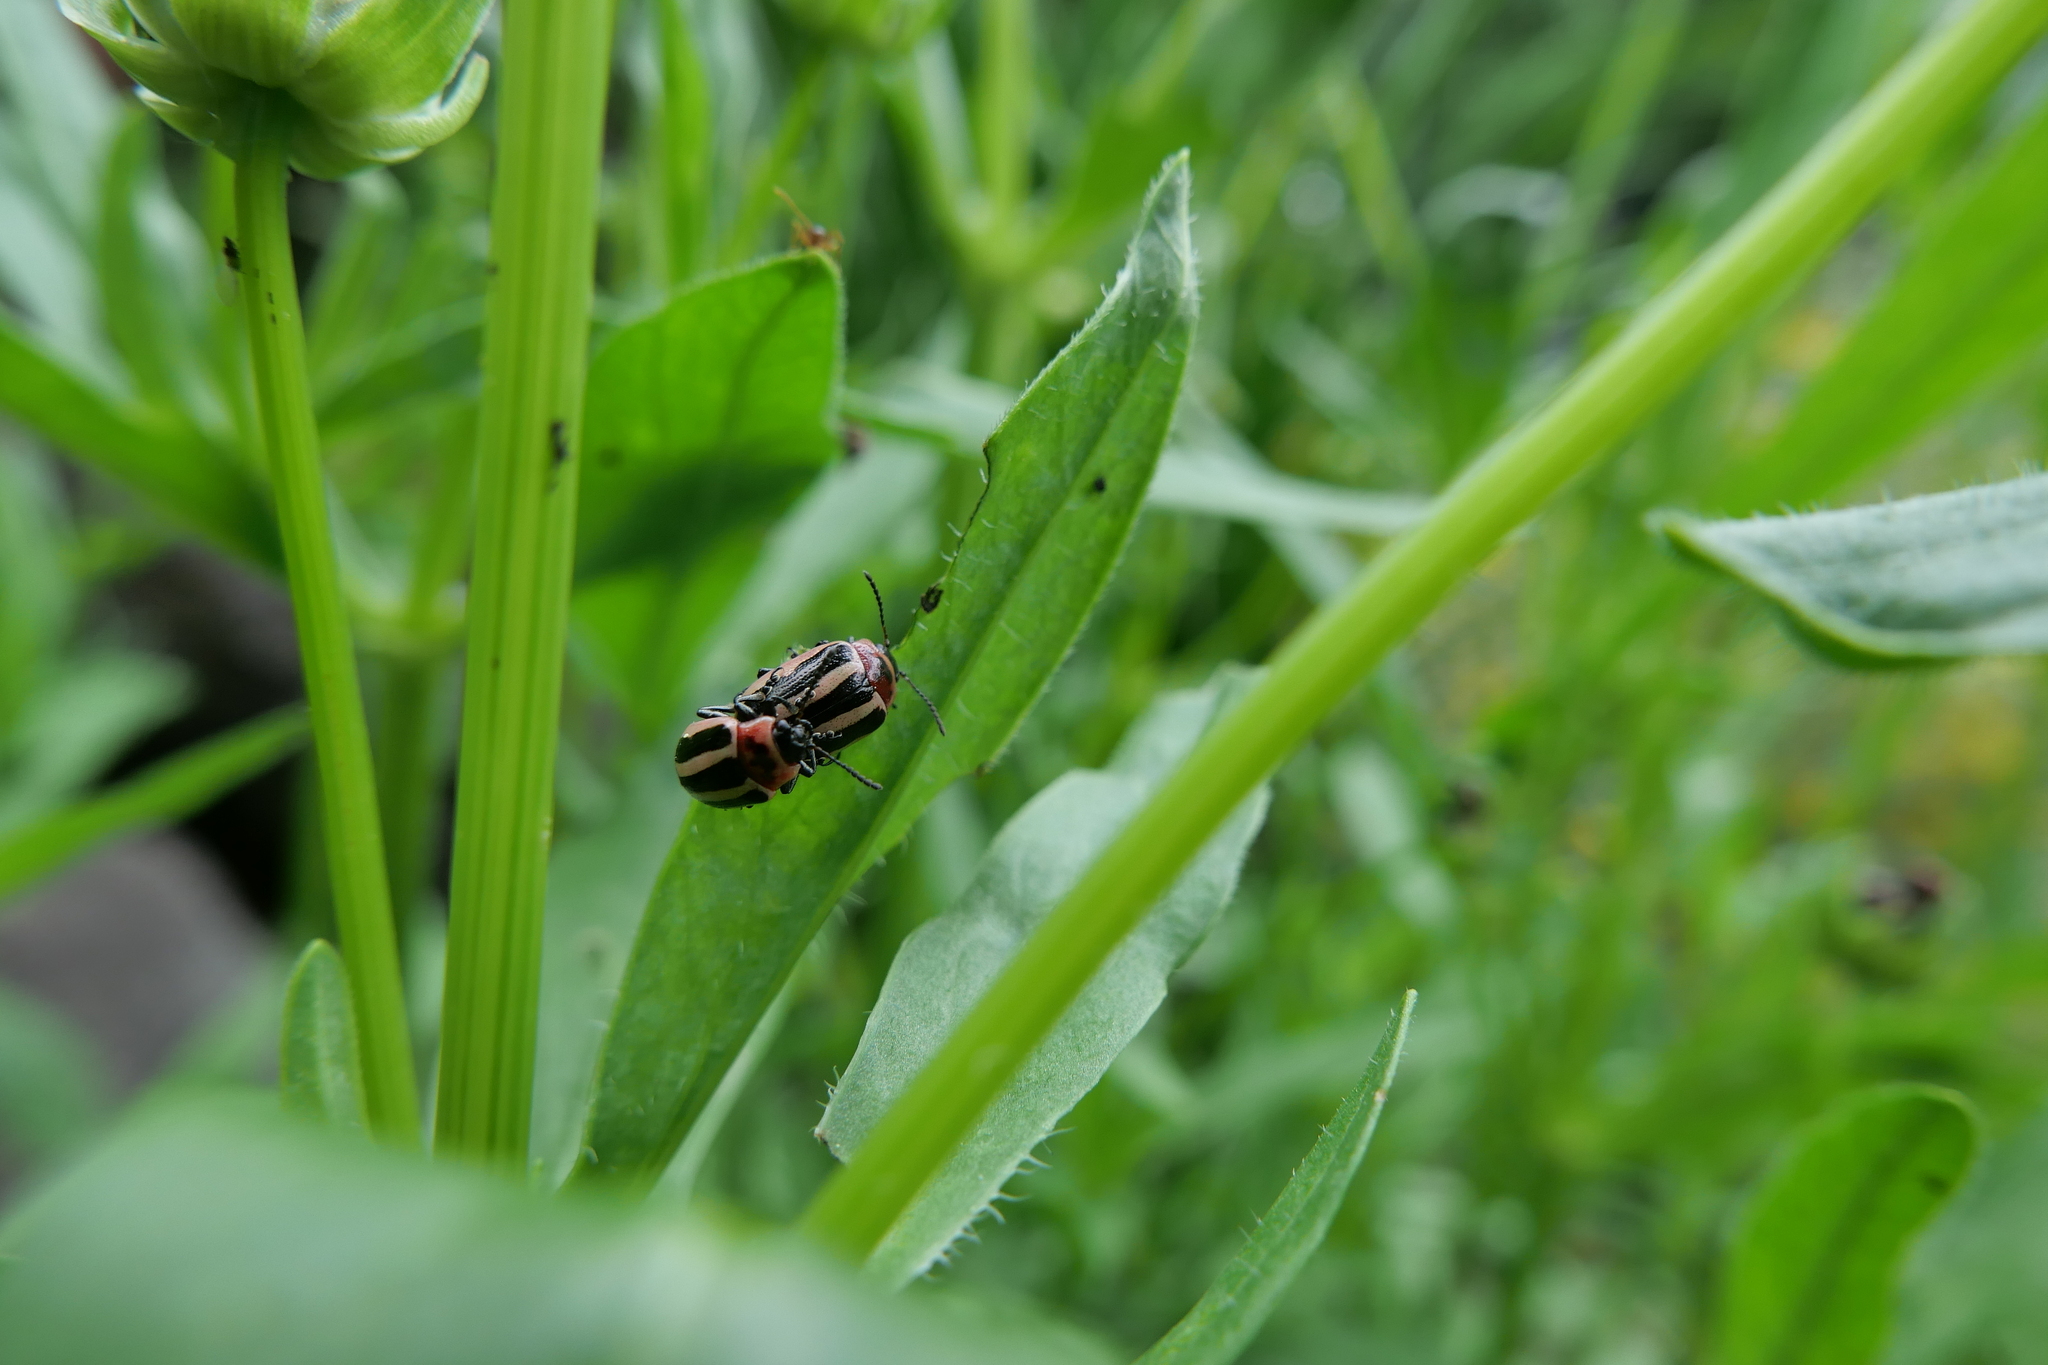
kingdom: Animalia
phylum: Arthropoda
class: Insecta
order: Coleoptera
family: Chrysomelidae
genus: Calligrapha
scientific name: Calligrapha californica
